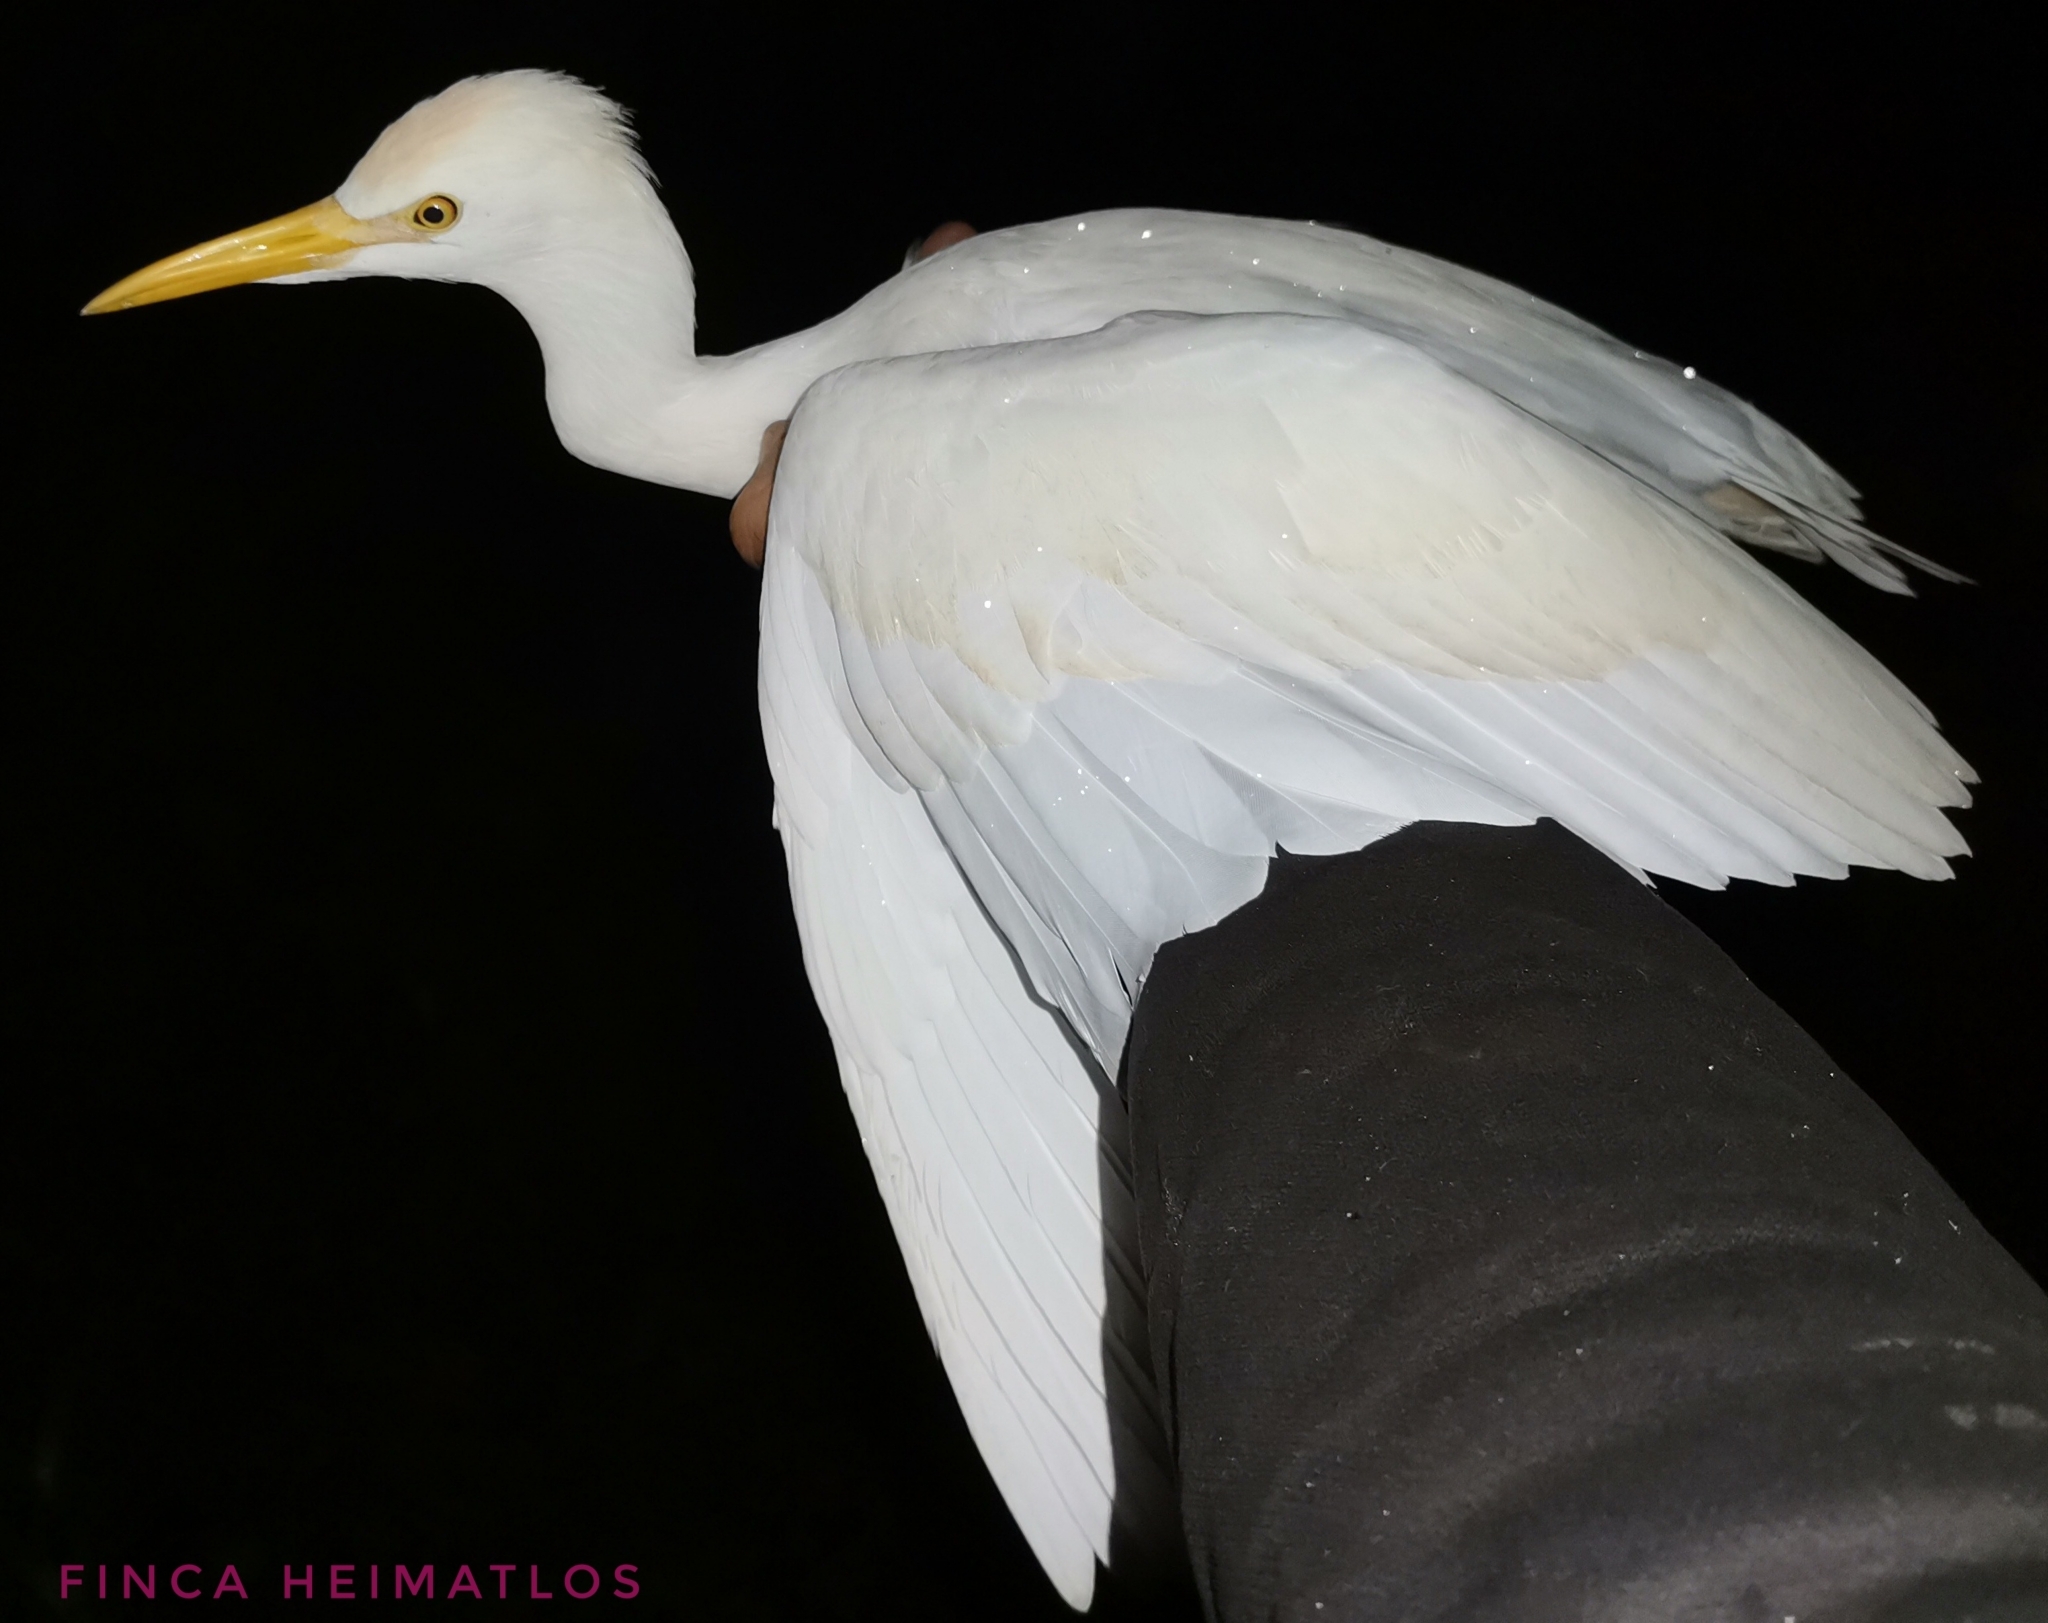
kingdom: Animalia
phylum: Chordata
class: Aves
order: Pelecaniformes
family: Ardeidae
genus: Bubulcus
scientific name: Bubulcus ibis
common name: Cattle egret
